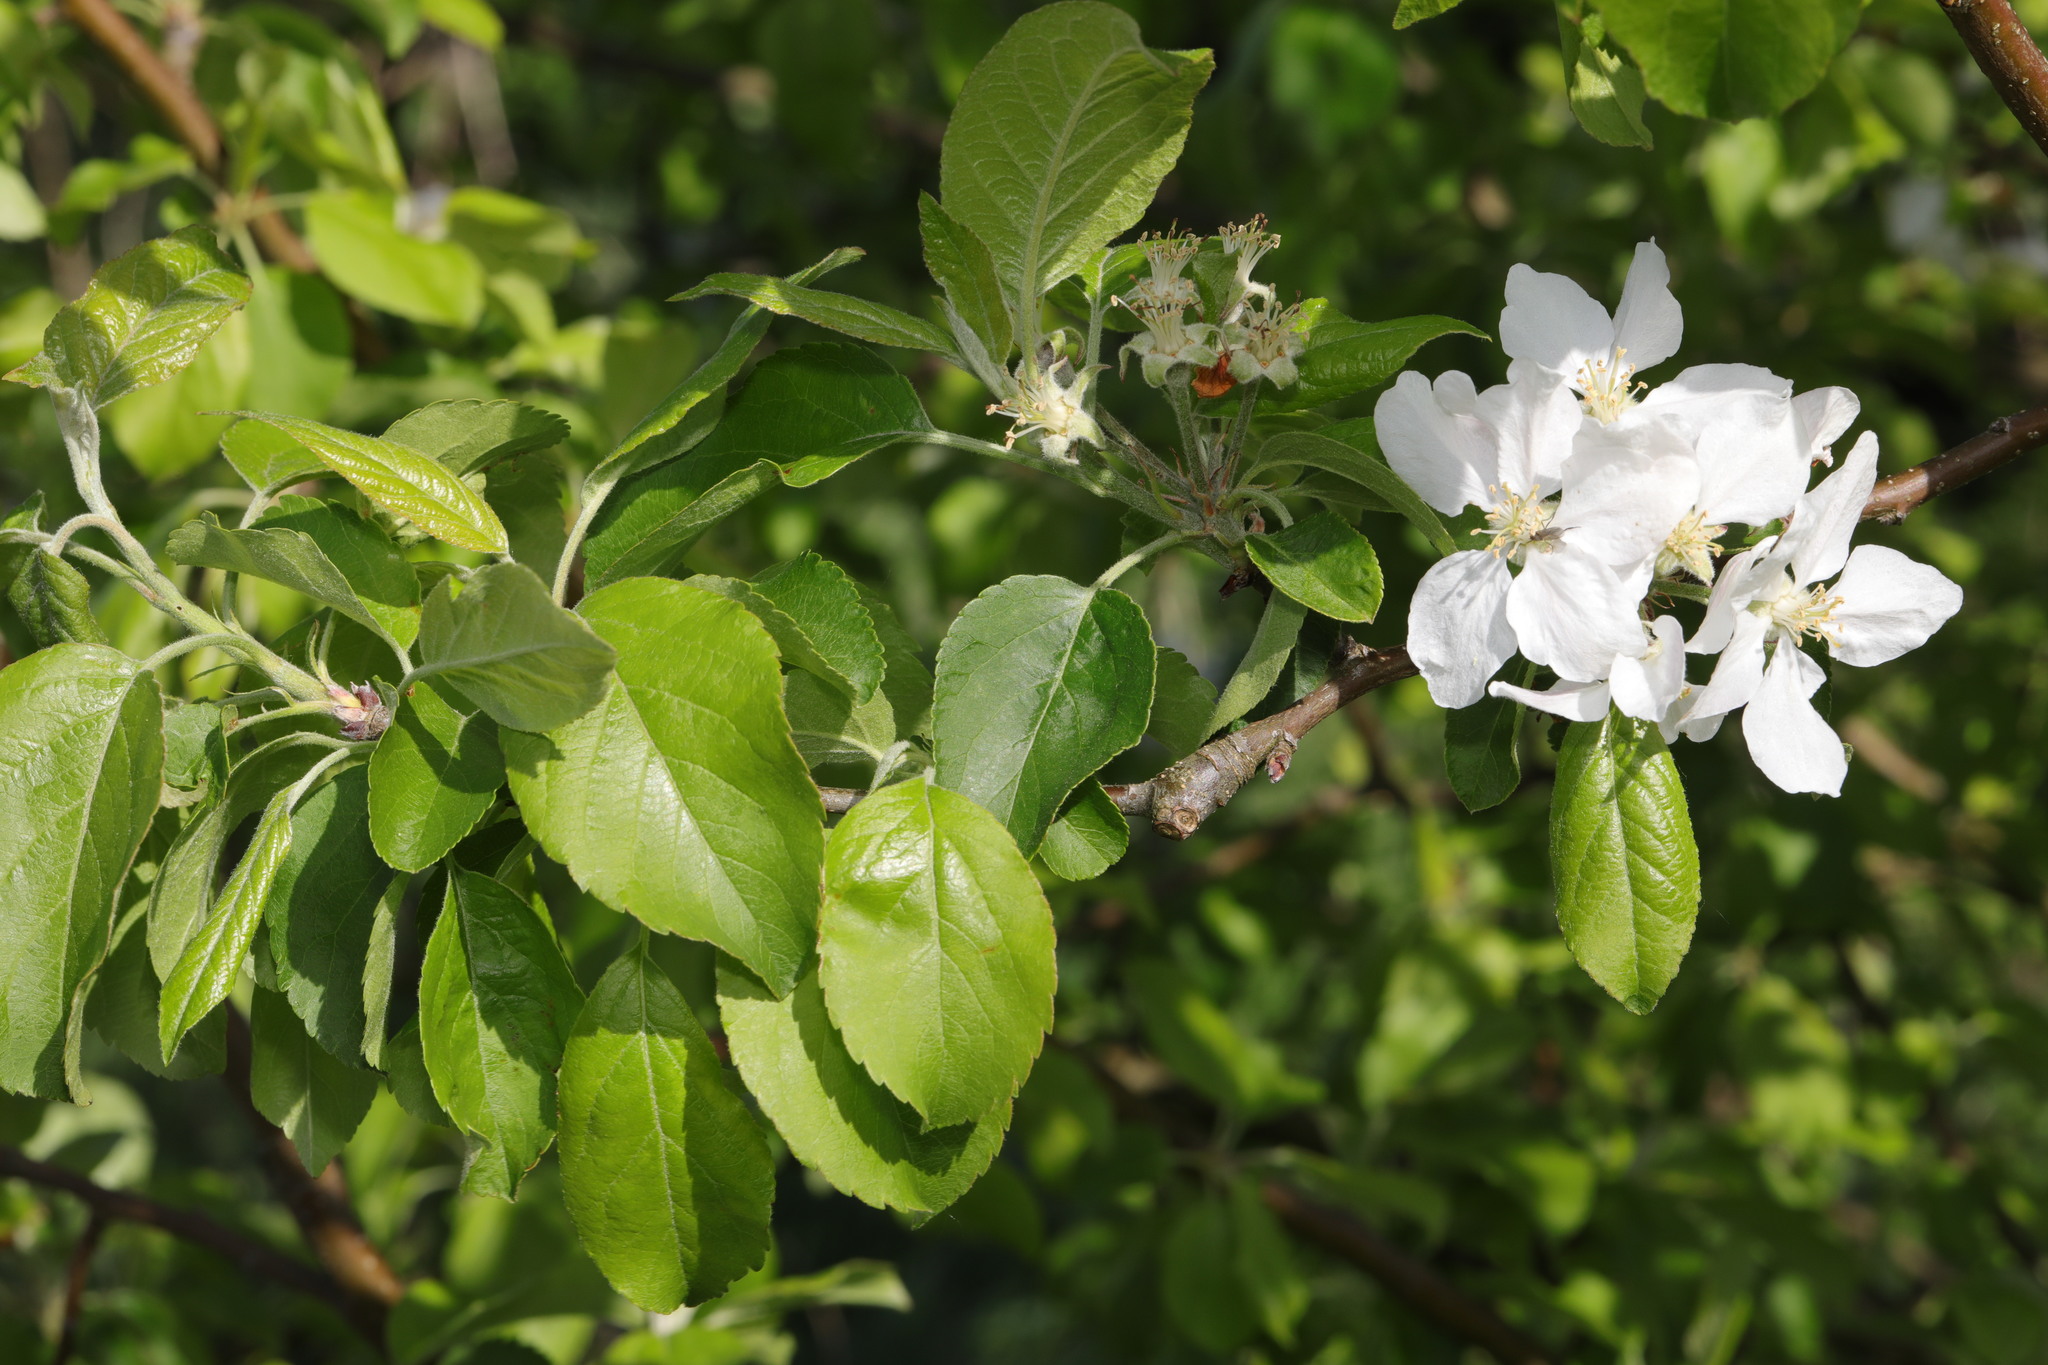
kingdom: Plantae
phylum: Tracheophyta
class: Magnoliopsida
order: Rosales
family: Rosaceae
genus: Malus
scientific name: Malus domestica
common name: Apple
